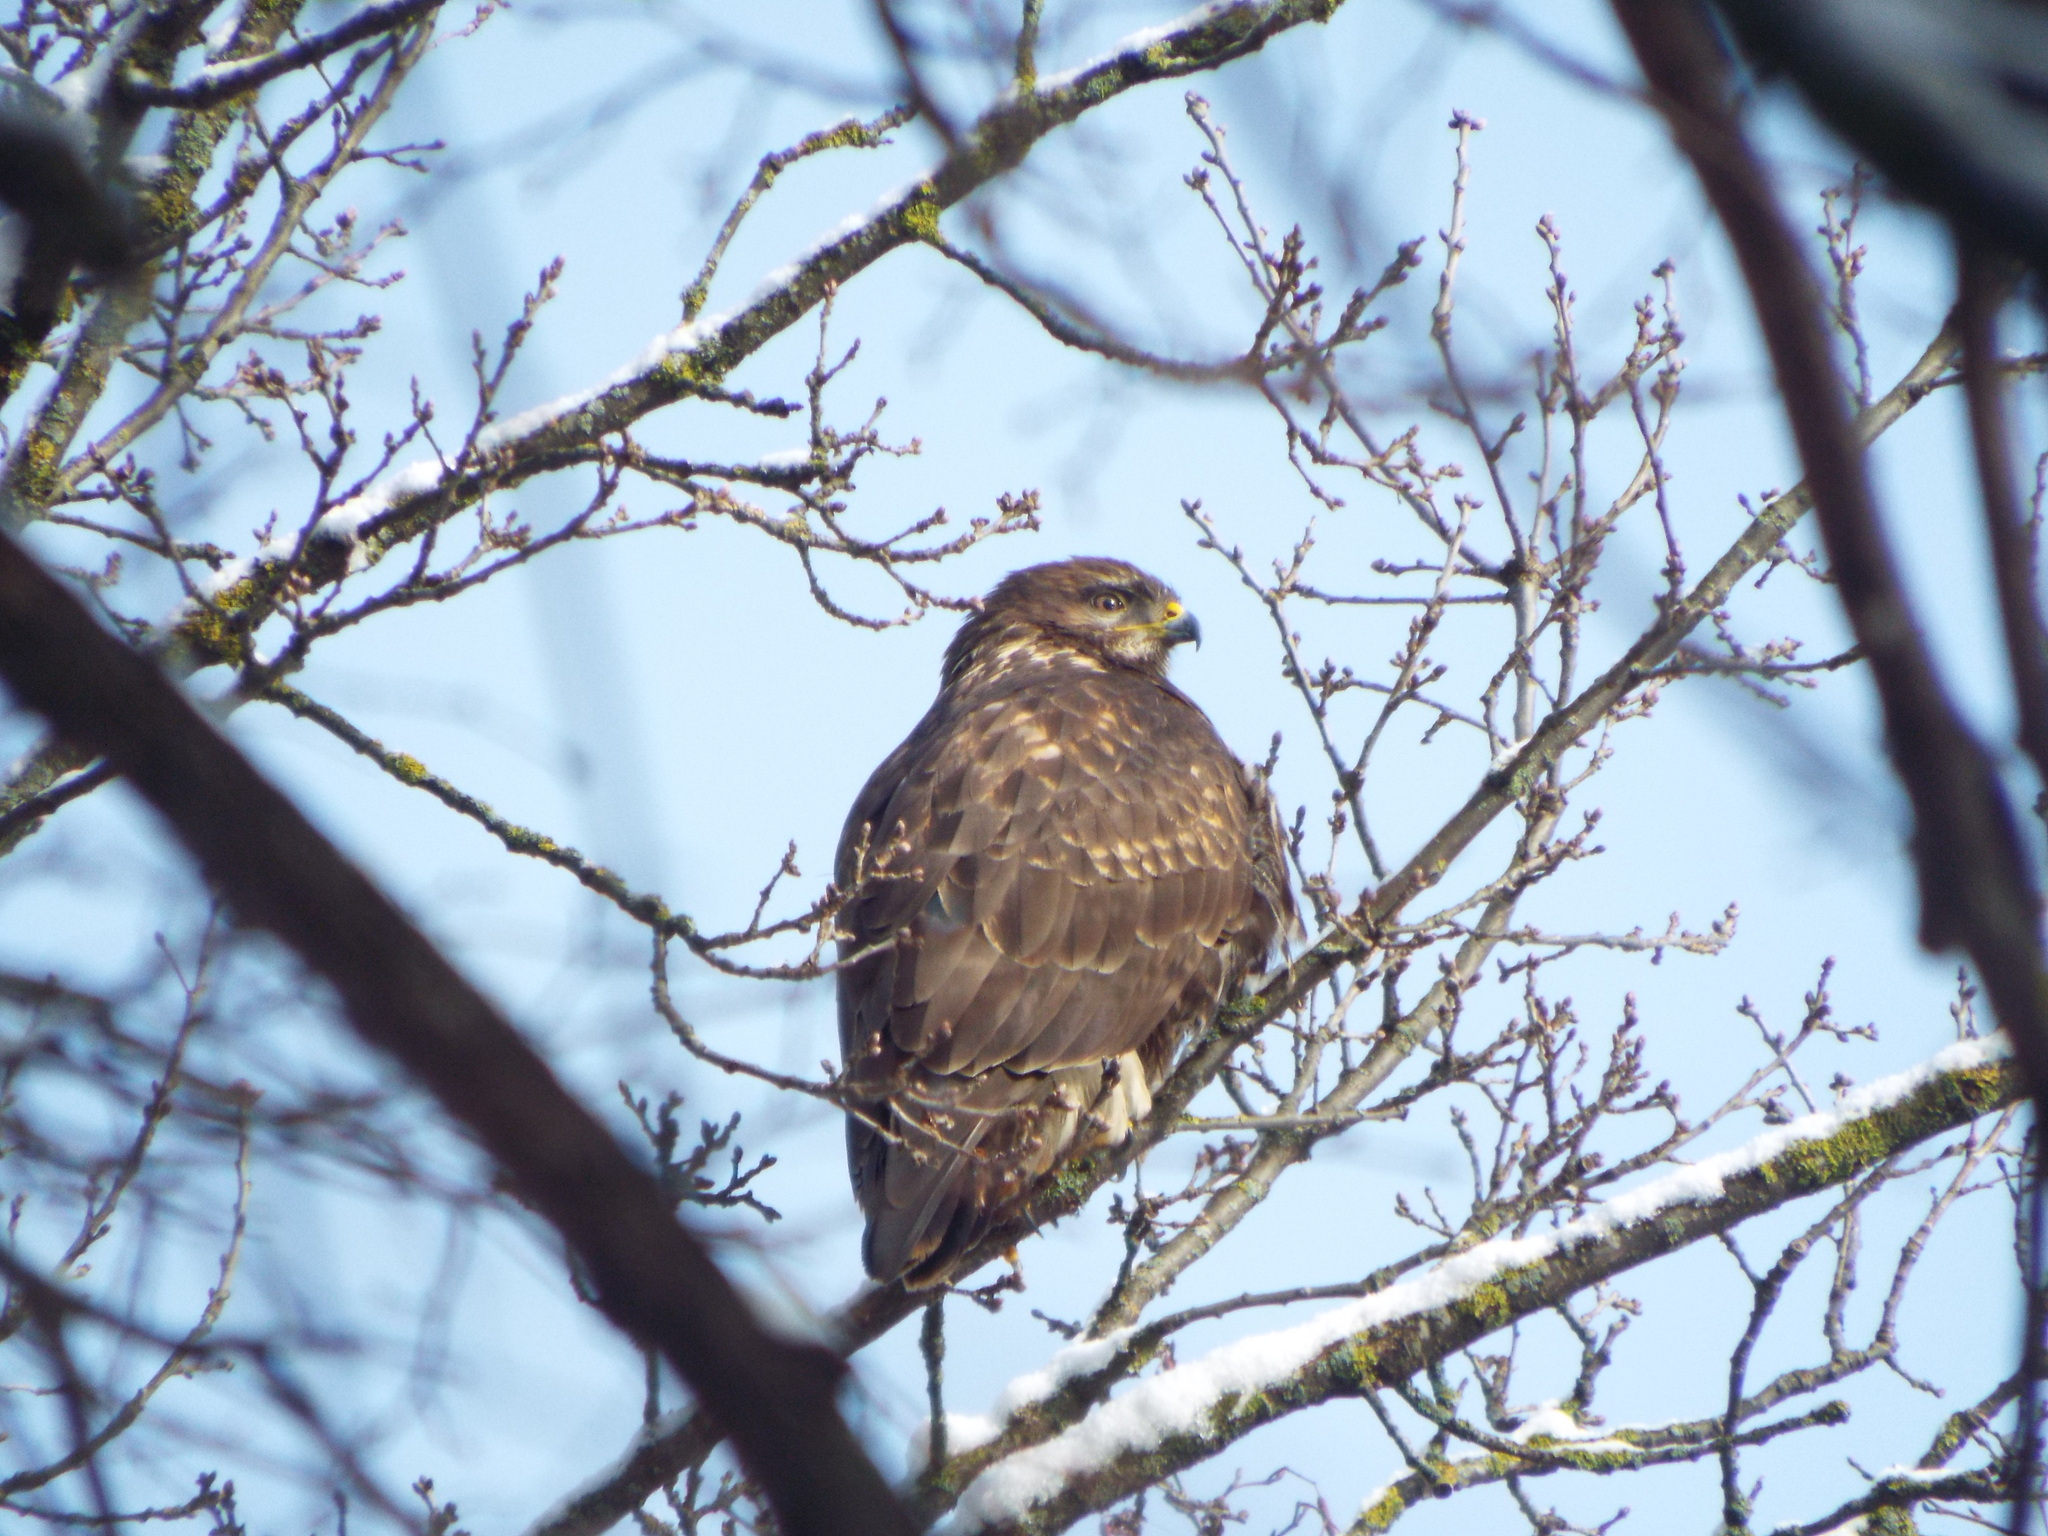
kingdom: Animalia
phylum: Chordata
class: Aves
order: Accipitriformes
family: Accipitridae
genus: Buteo
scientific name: Buteo buteo
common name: Common buzzard
